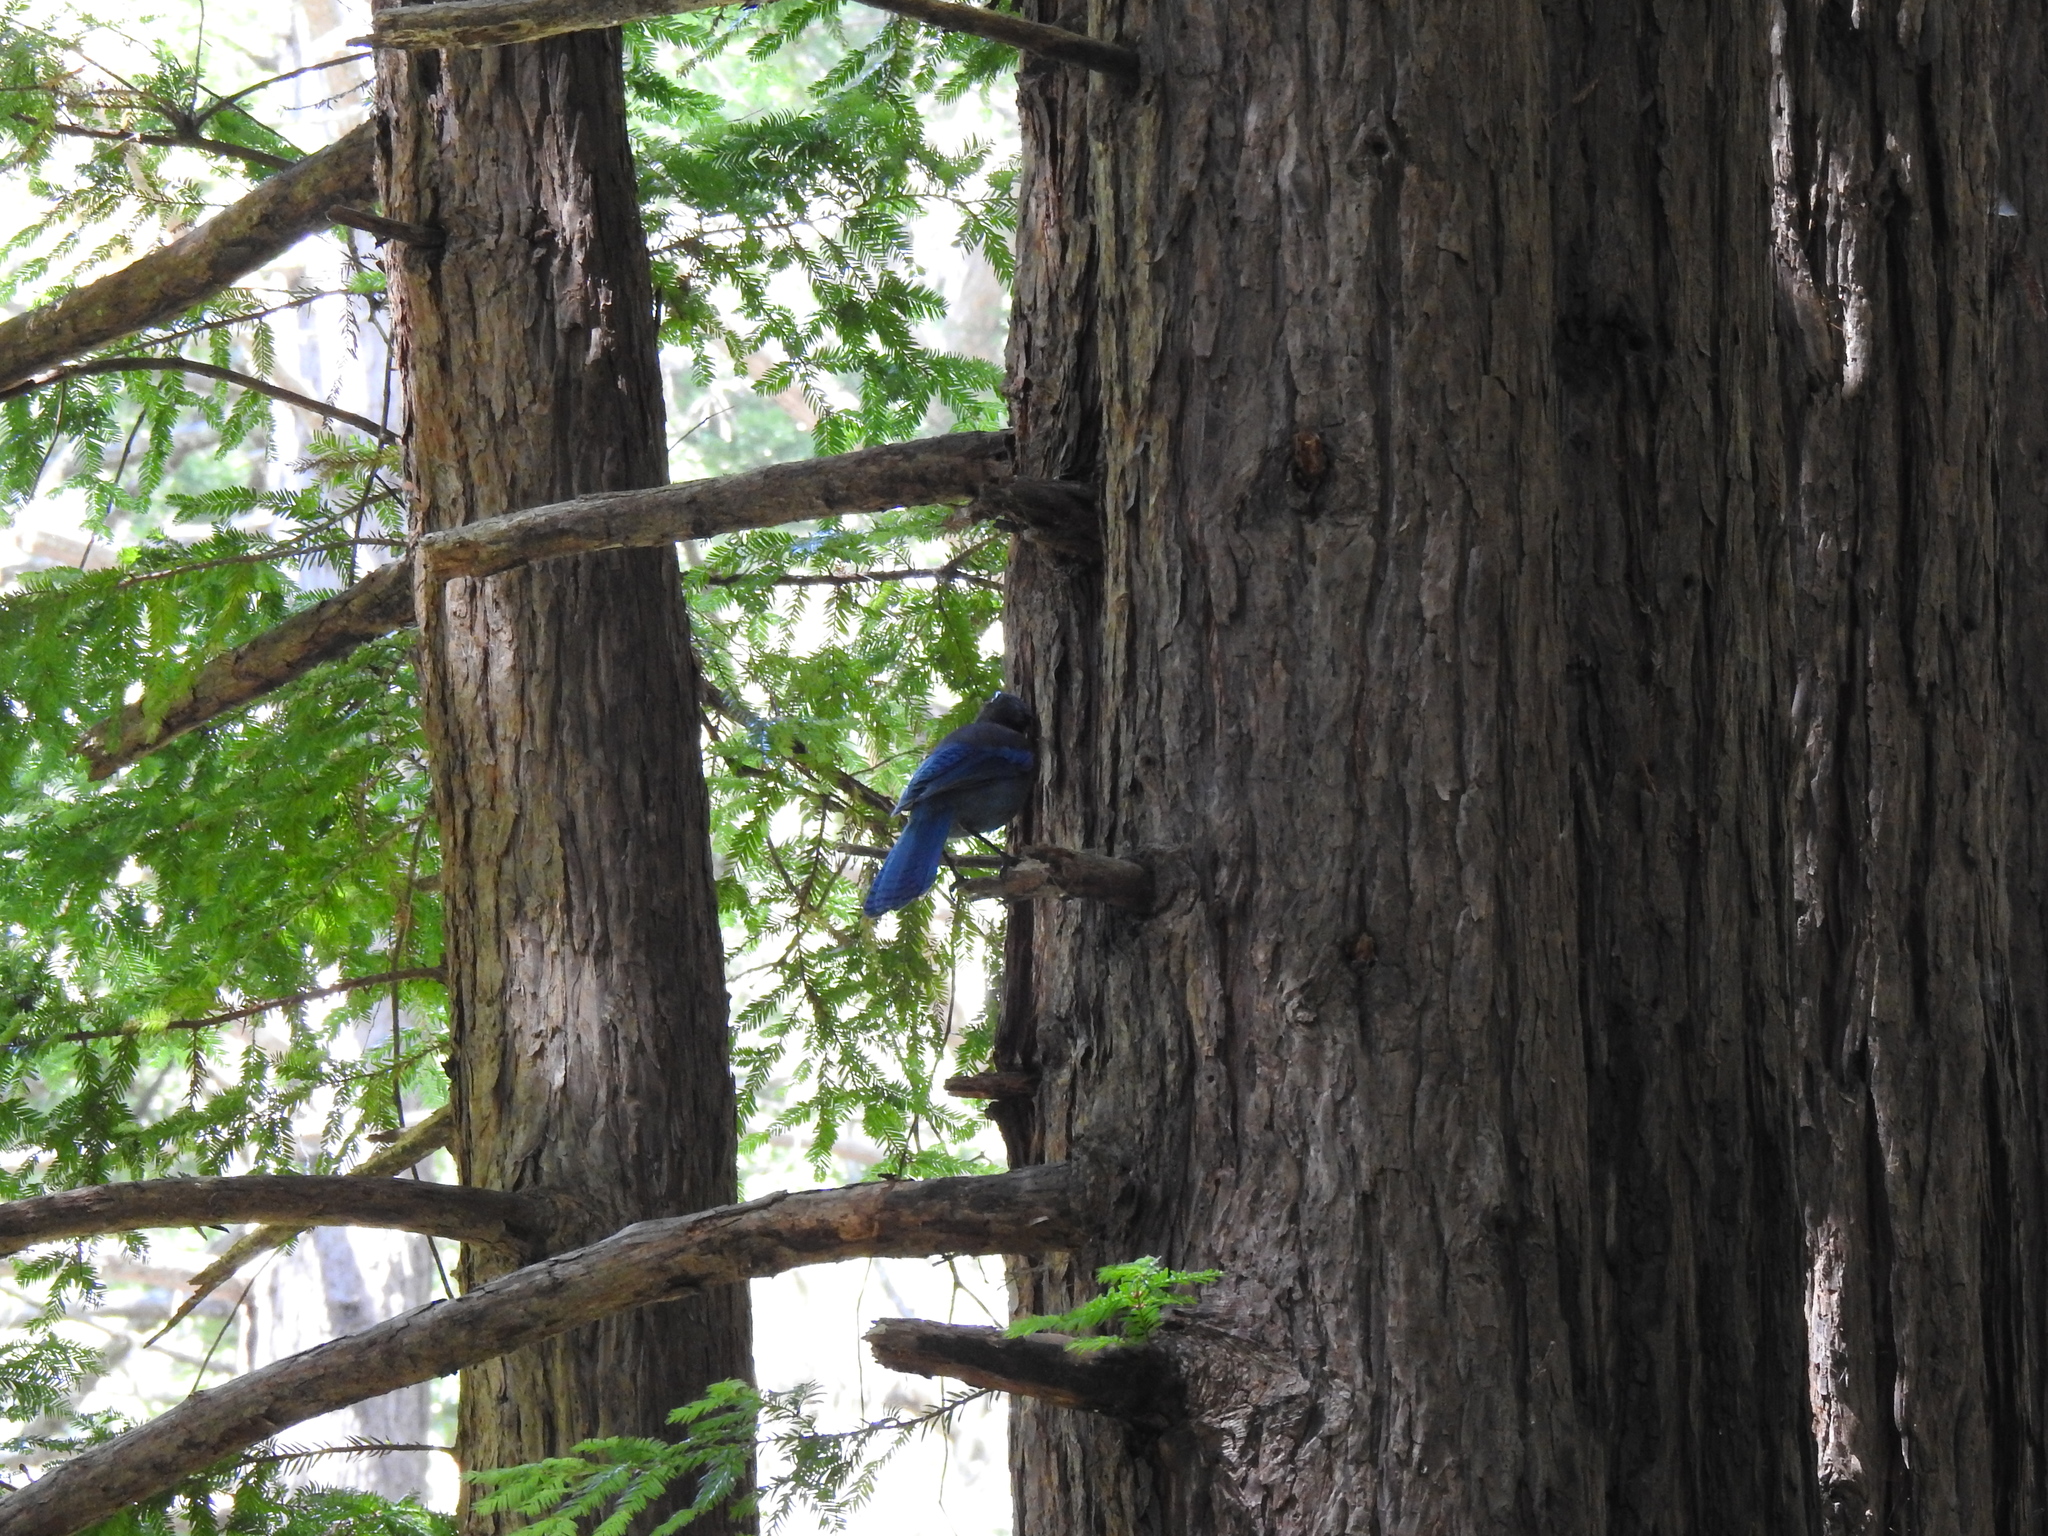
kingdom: Animalia
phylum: Chordata
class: Aves
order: Passeriformes
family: Corvidae
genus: Cyanocitta
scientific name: Cyanocitta stelleri
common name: Steller's jay
